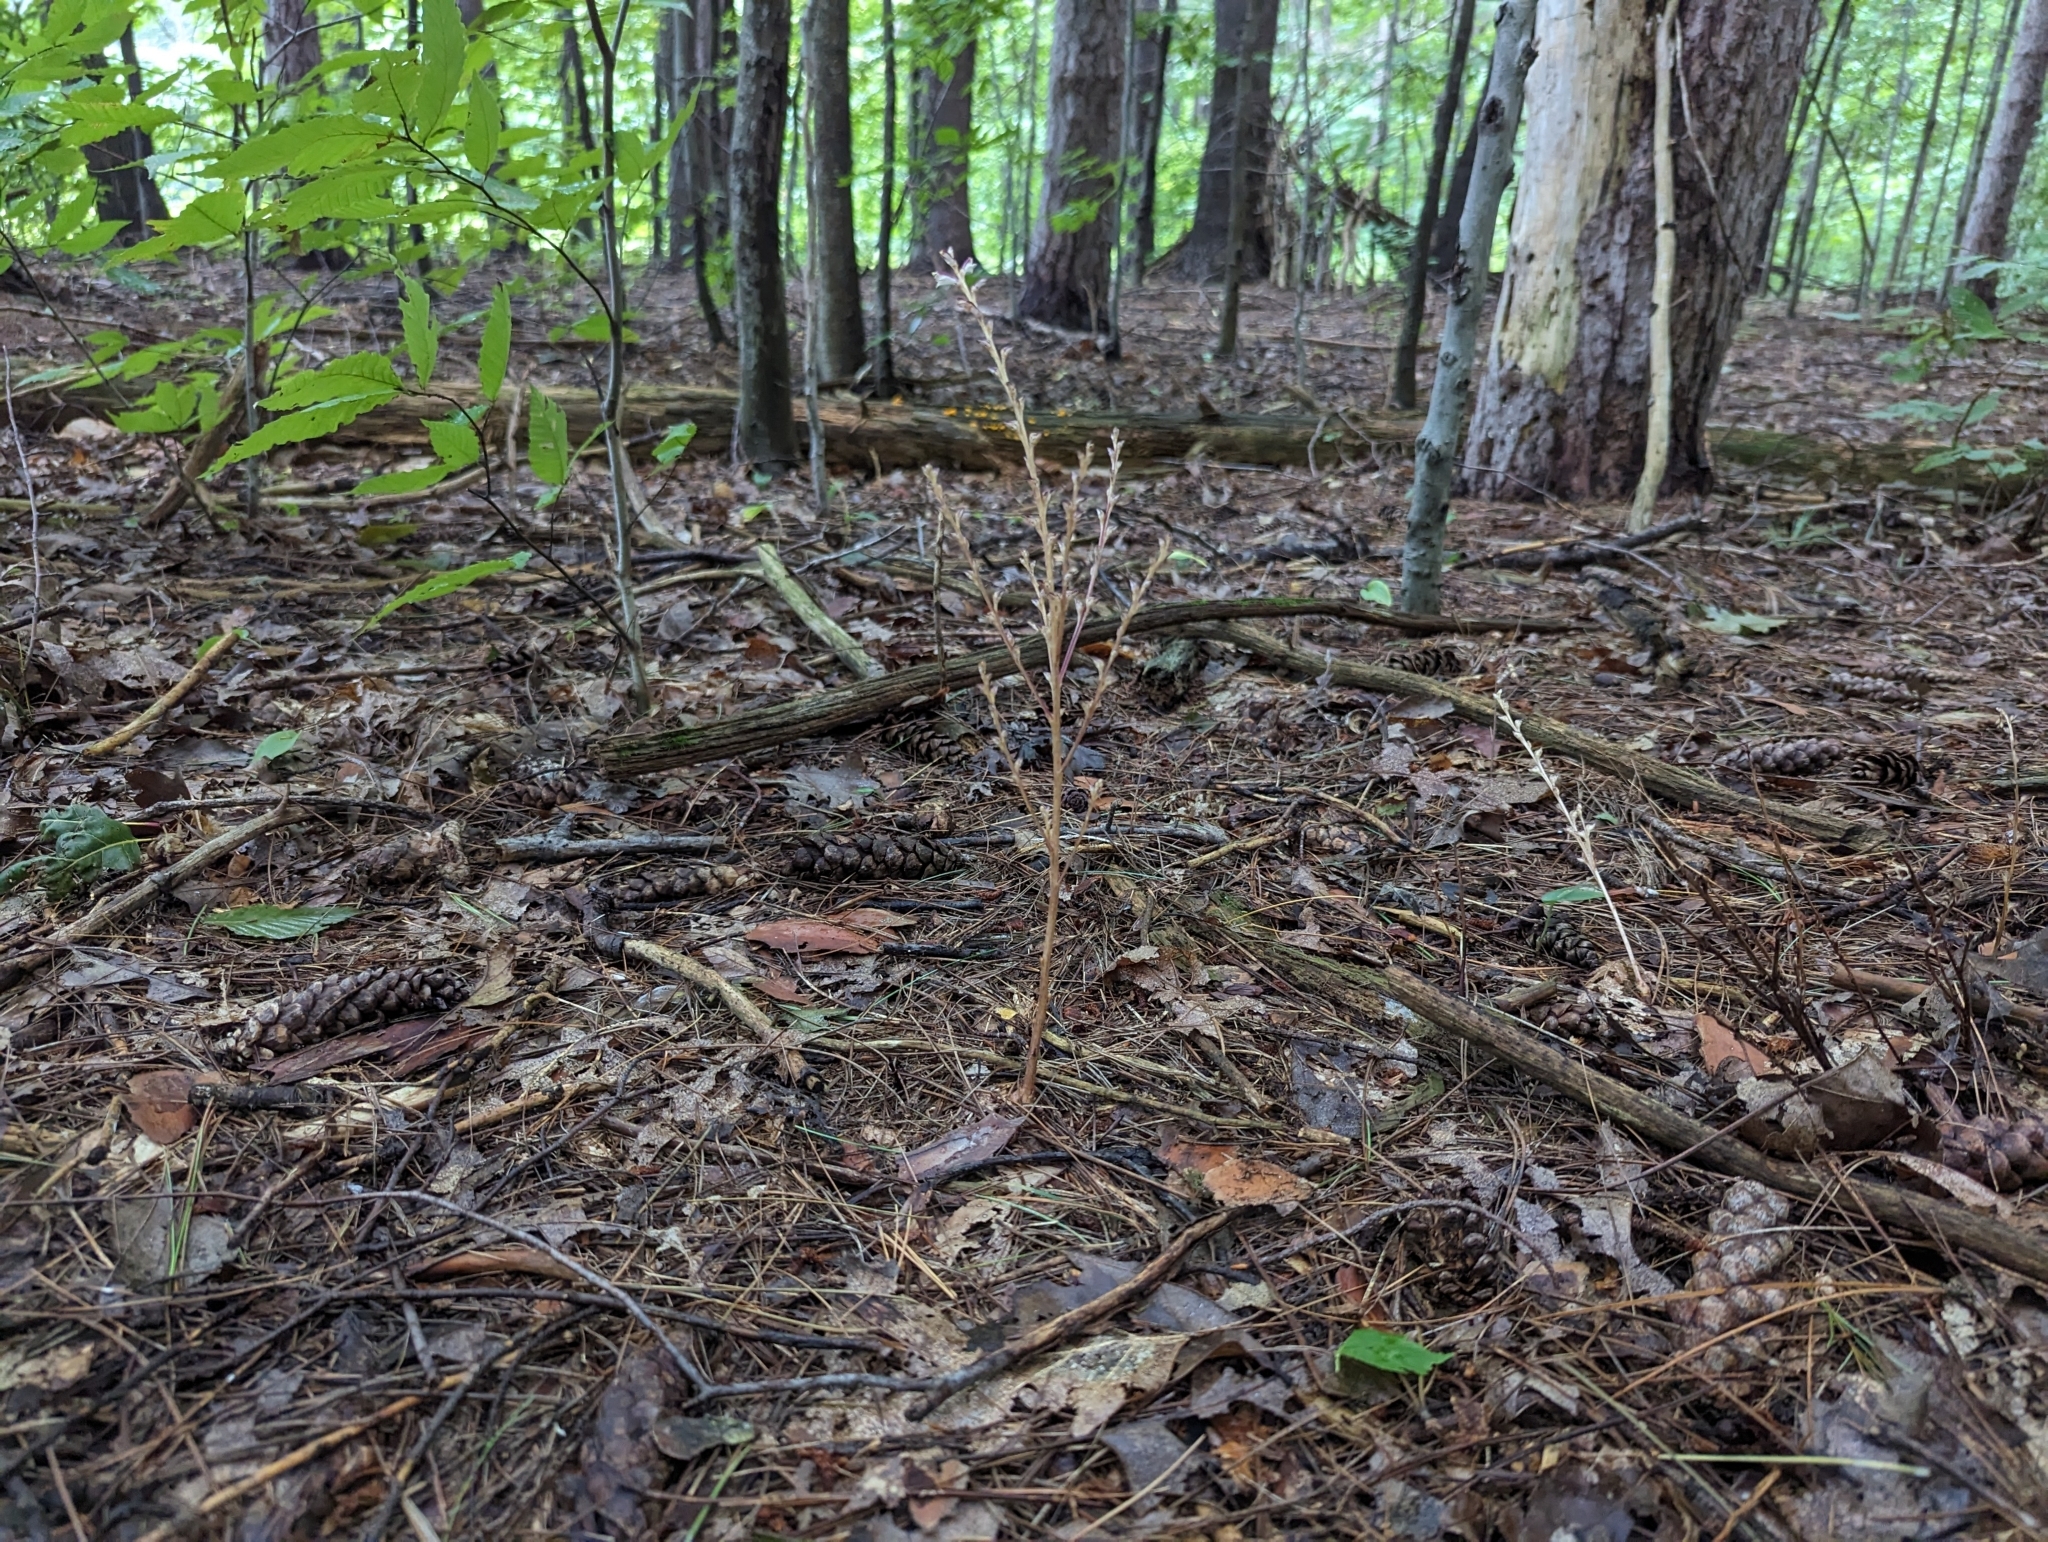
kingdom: Plantae
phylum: Tracheophyta
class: Magnoliopsida
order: Lamiales
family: Orobanchaceae
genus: Epifagus
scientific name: Epifagus virginiana
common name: Beechdrops
